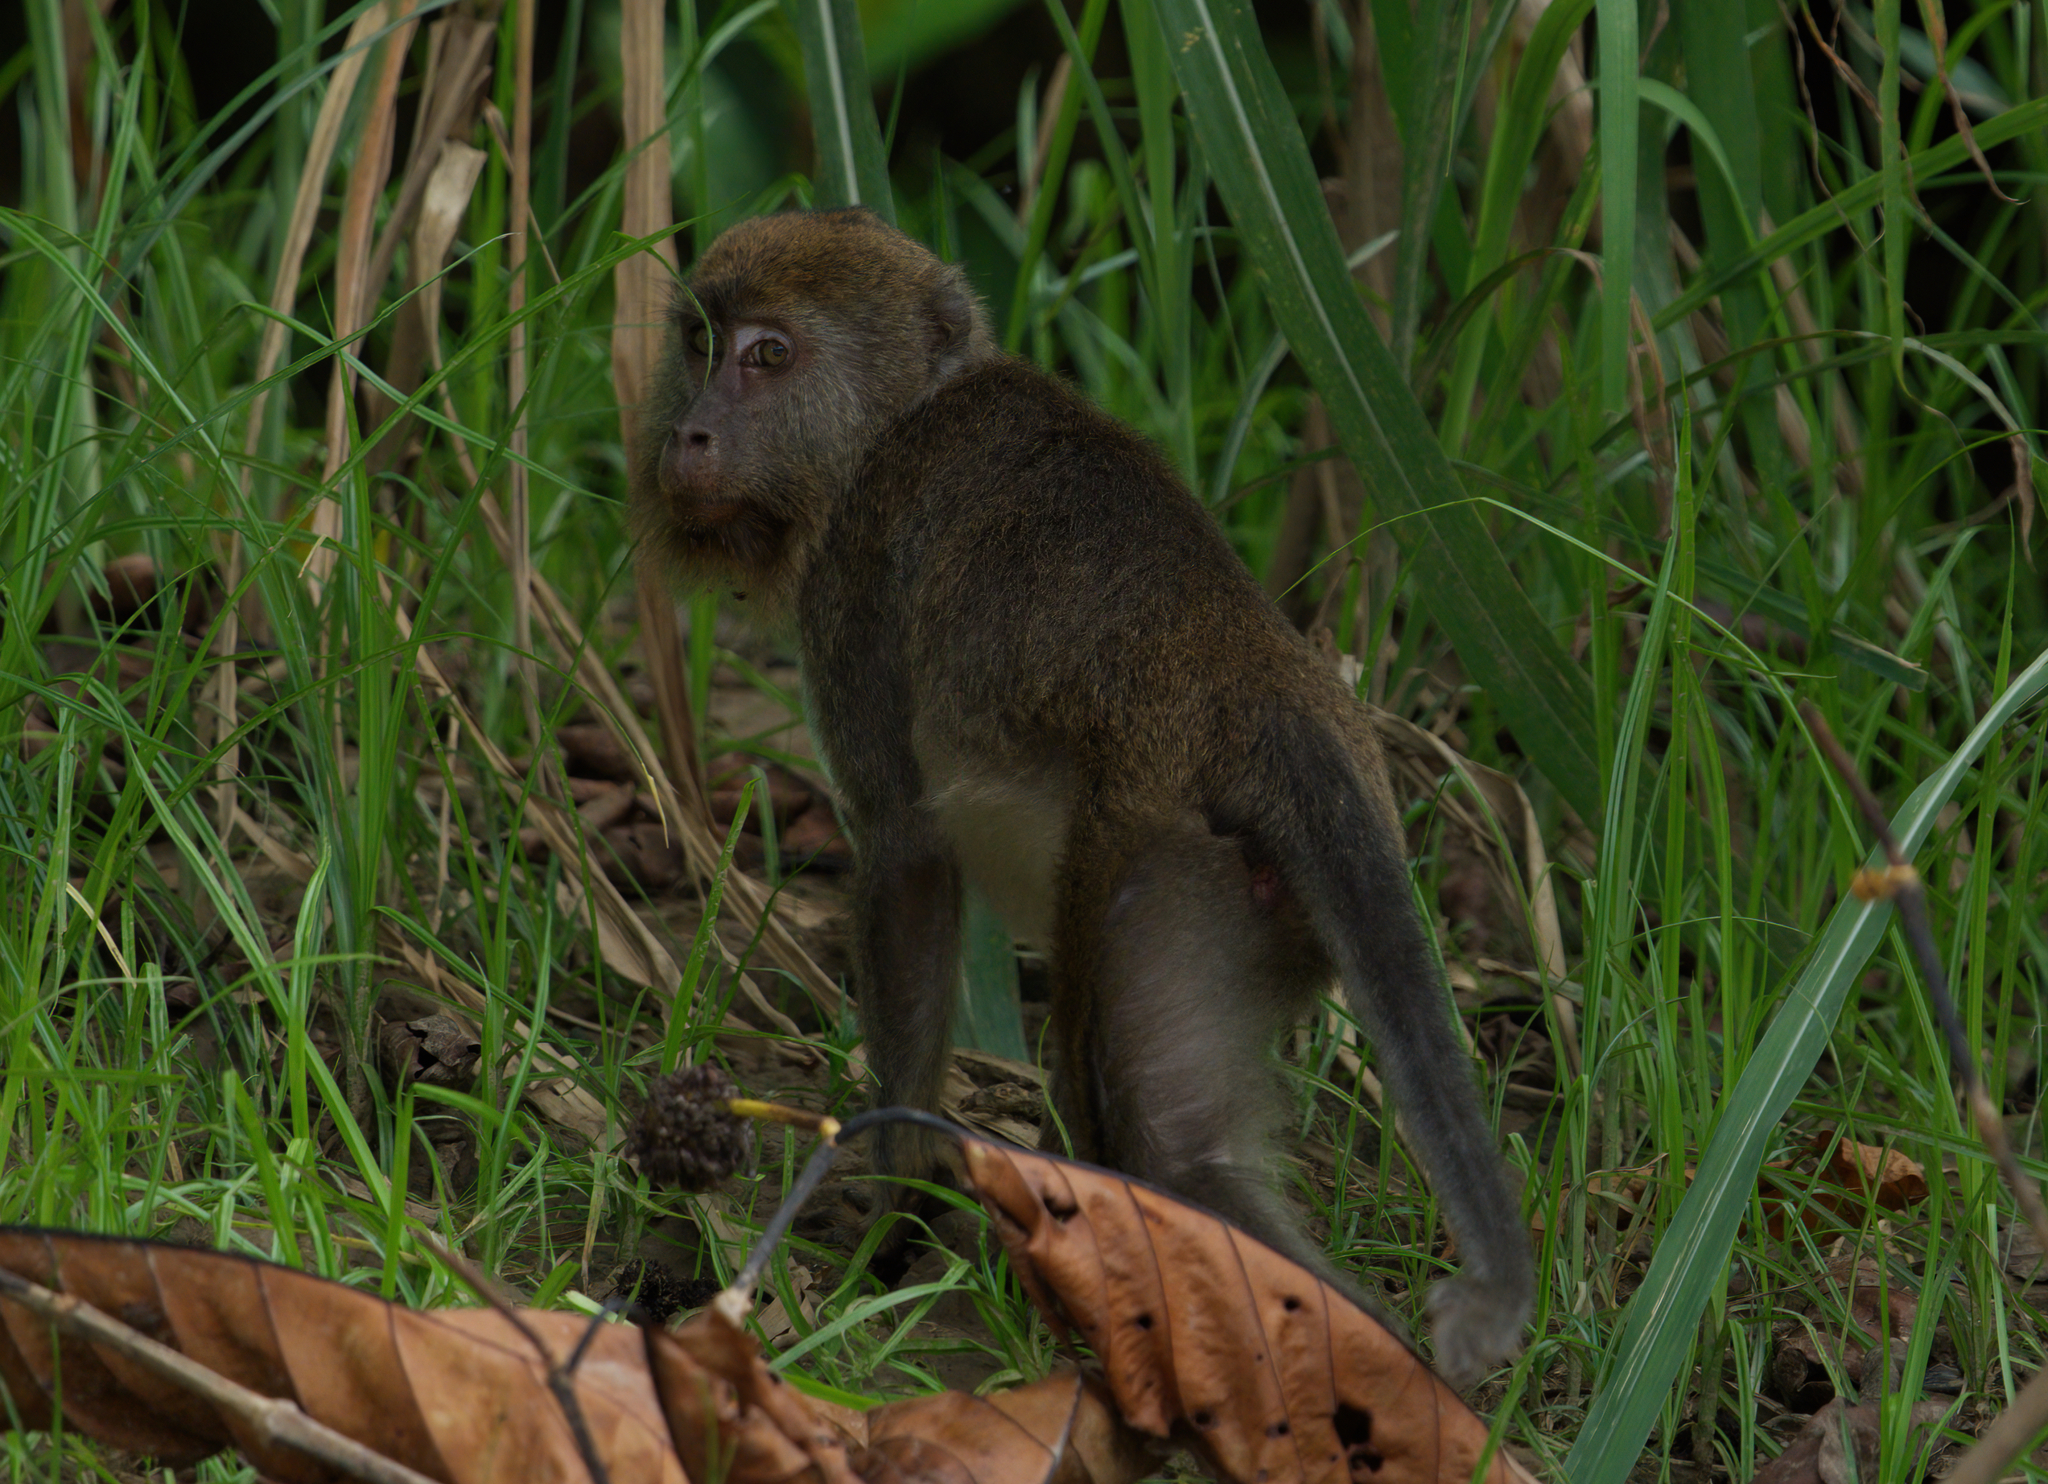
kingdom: Animalia
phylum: Chordata
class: Mammalia
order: Primates
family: Cercopithecidae
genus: Macaca
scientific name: Macaca fascicularis
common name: Crab-eating macaque
